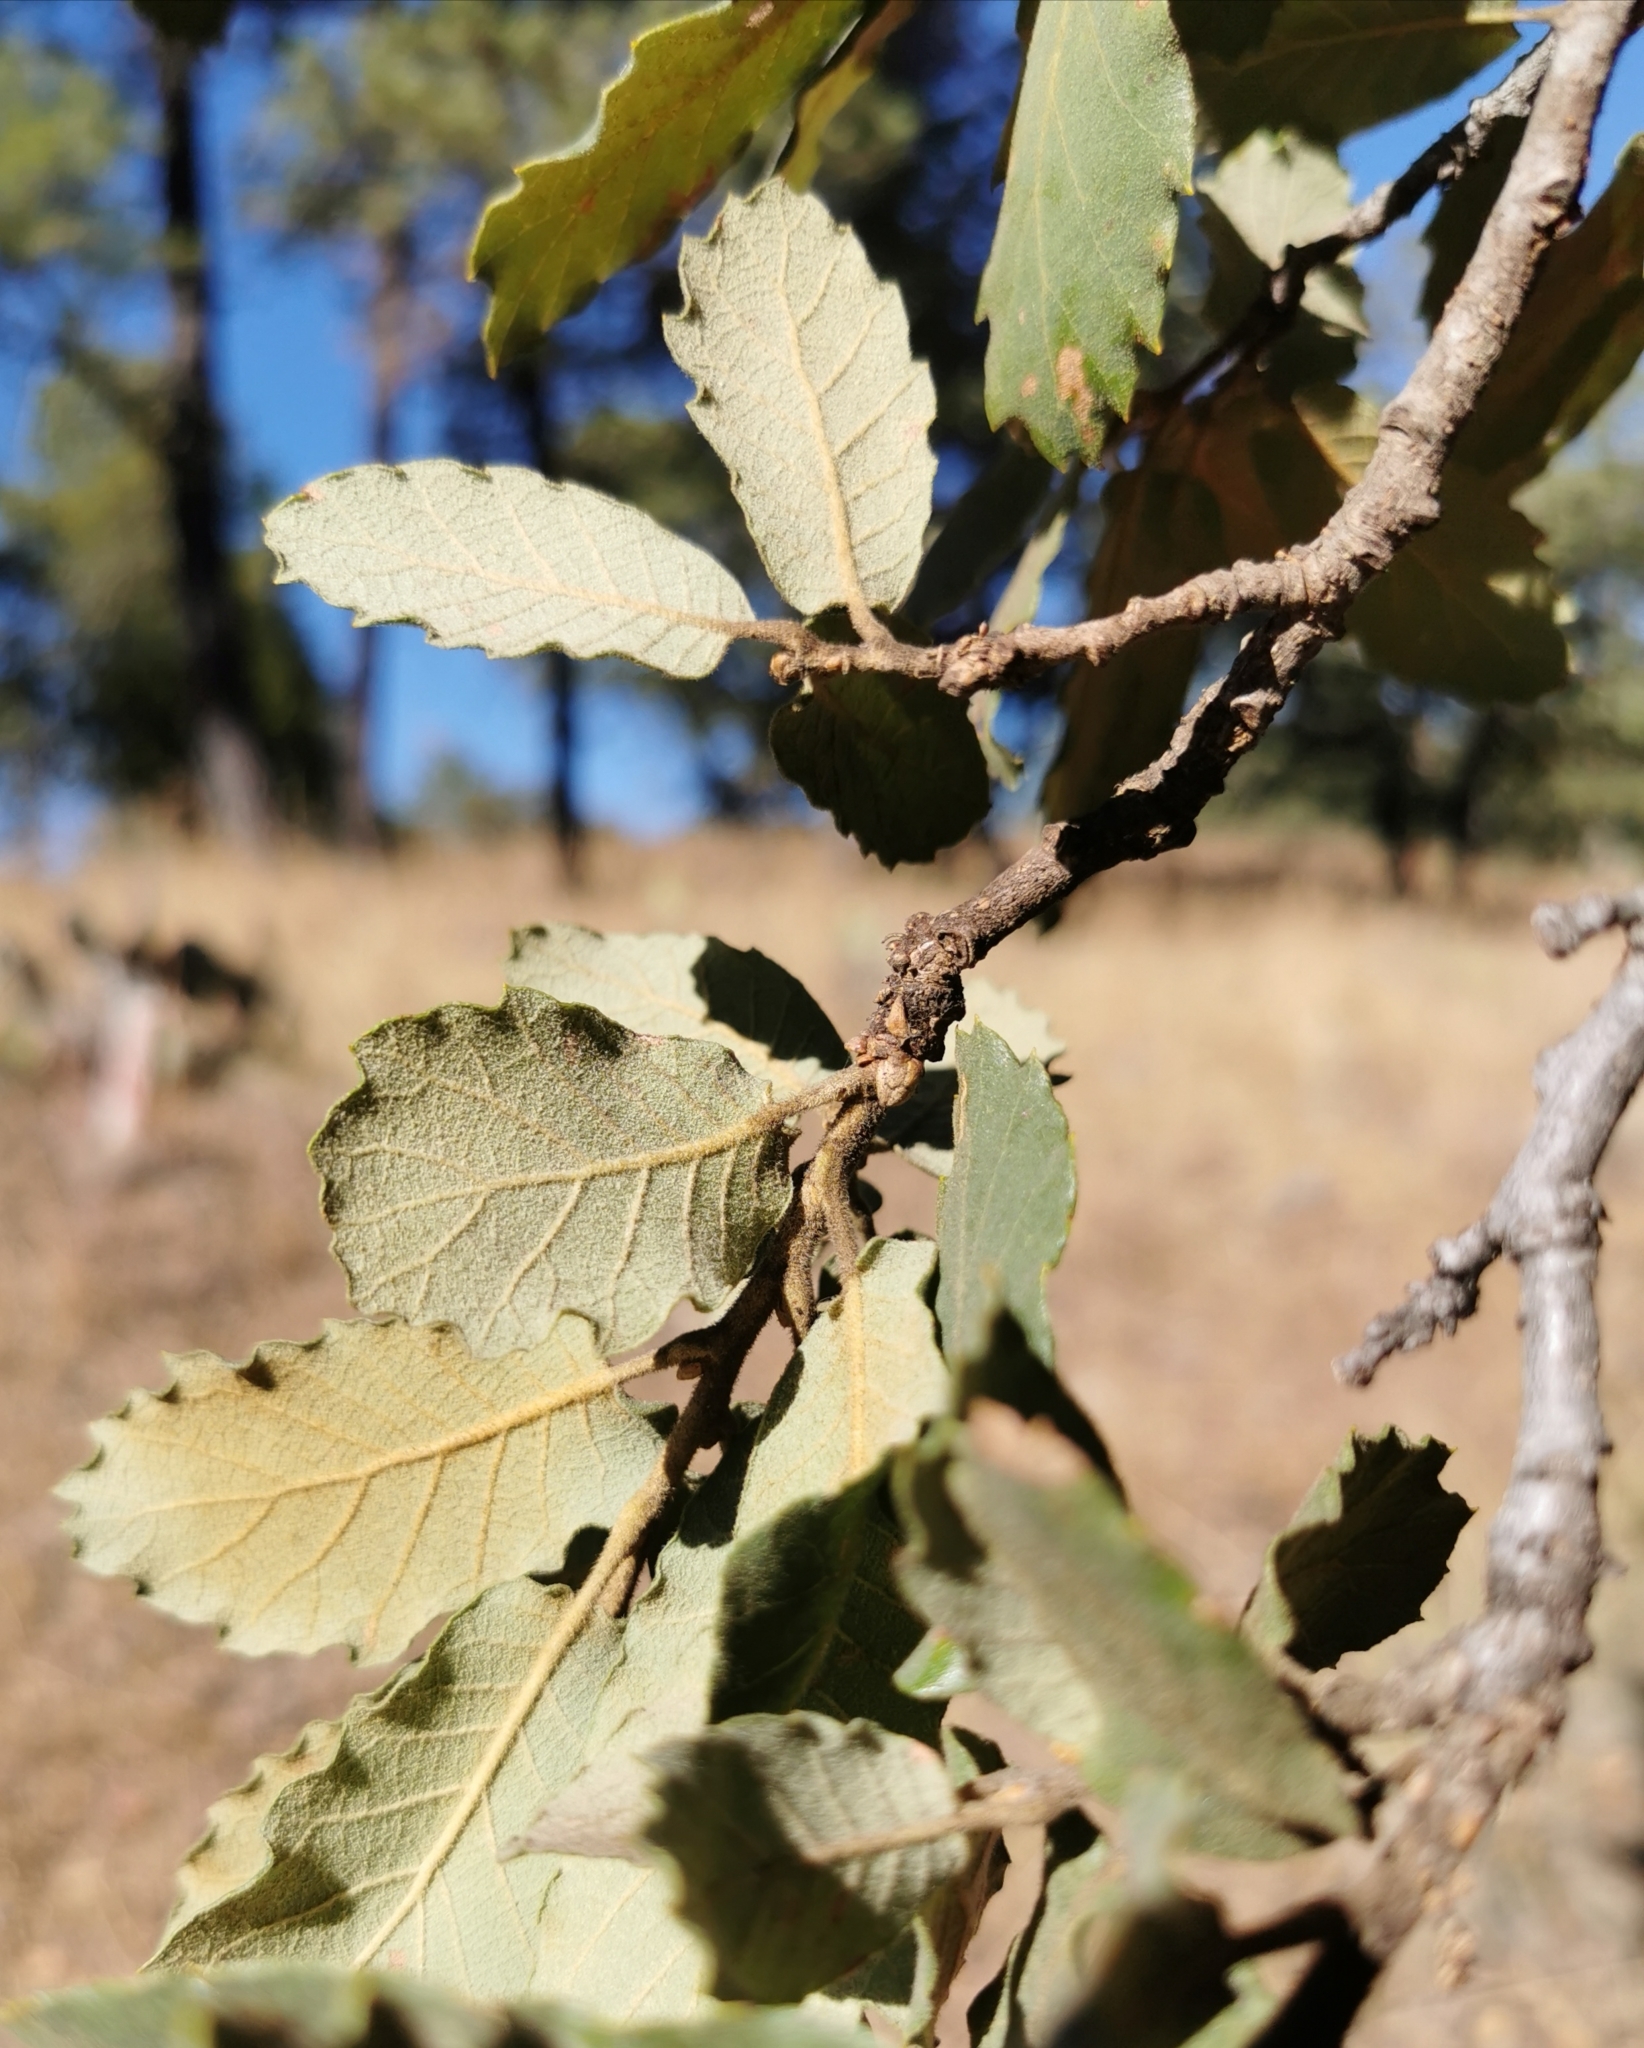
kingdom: Plantae
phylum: Tracheophyta
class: Magnoliopsida
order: Fagales
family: Fagaceae
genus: Quercus
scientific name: Quercus convallata
